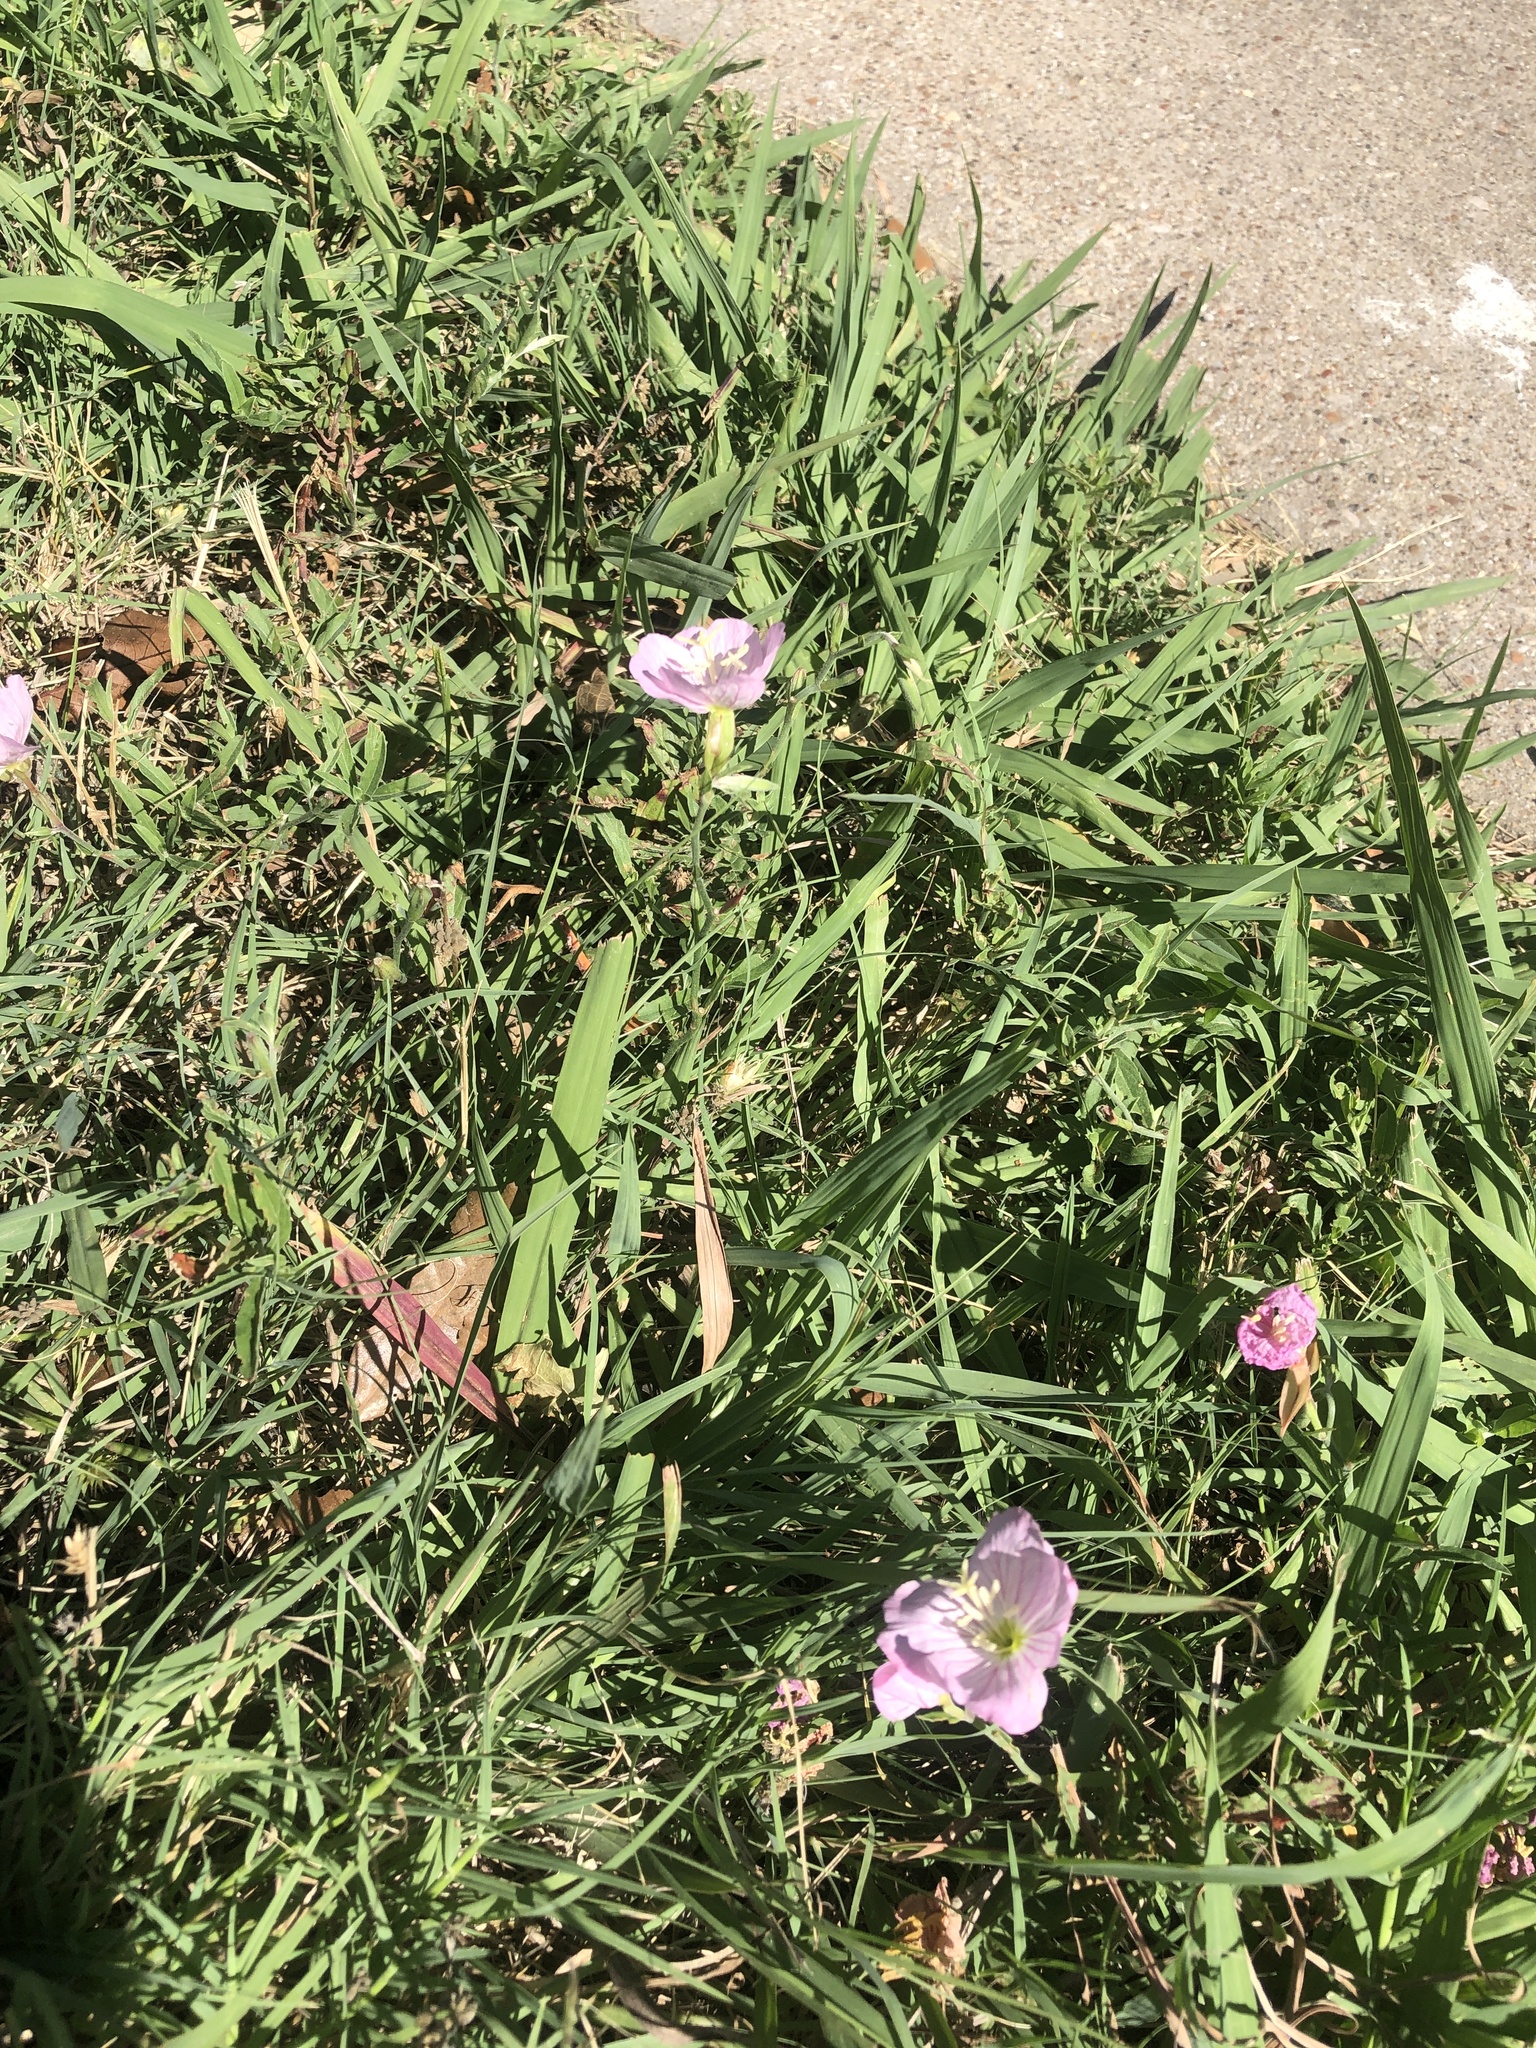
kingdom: Plantae
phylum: Tracheophyta
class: Magnoliopsida
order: Myrtales
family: Onagraceae
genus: Oenothera
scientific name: Oenothera speciosa
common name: White evening-primrose
